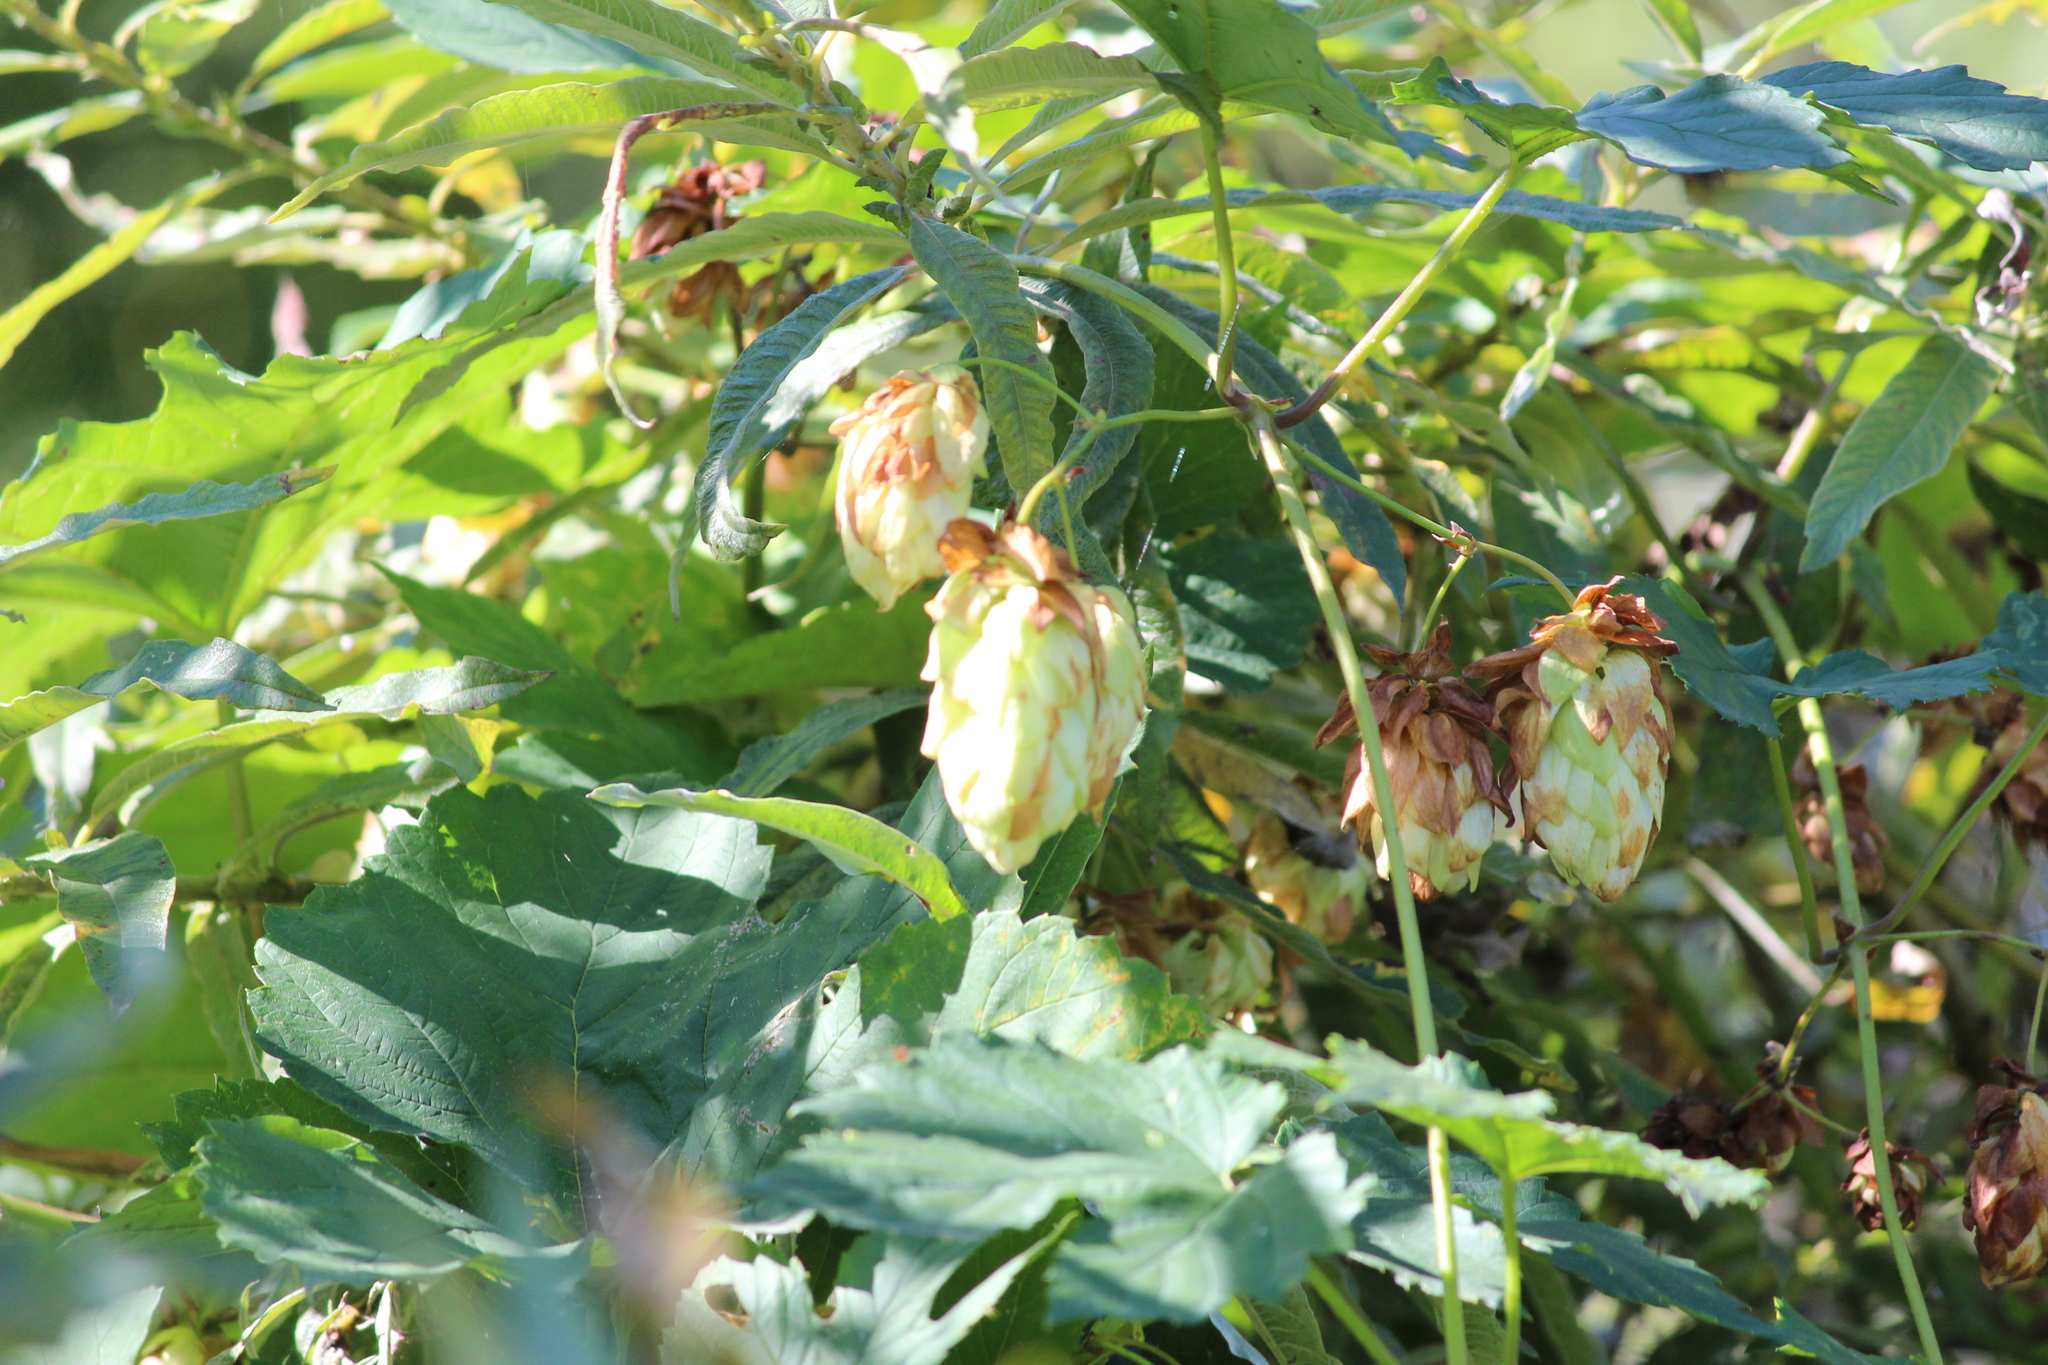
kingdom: Plantae
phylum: Tracheophyta
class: Magnoliopsida
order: Rosales
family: Cannabaceae
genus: Humulus
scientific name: Humulus lupulus
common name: Hop
